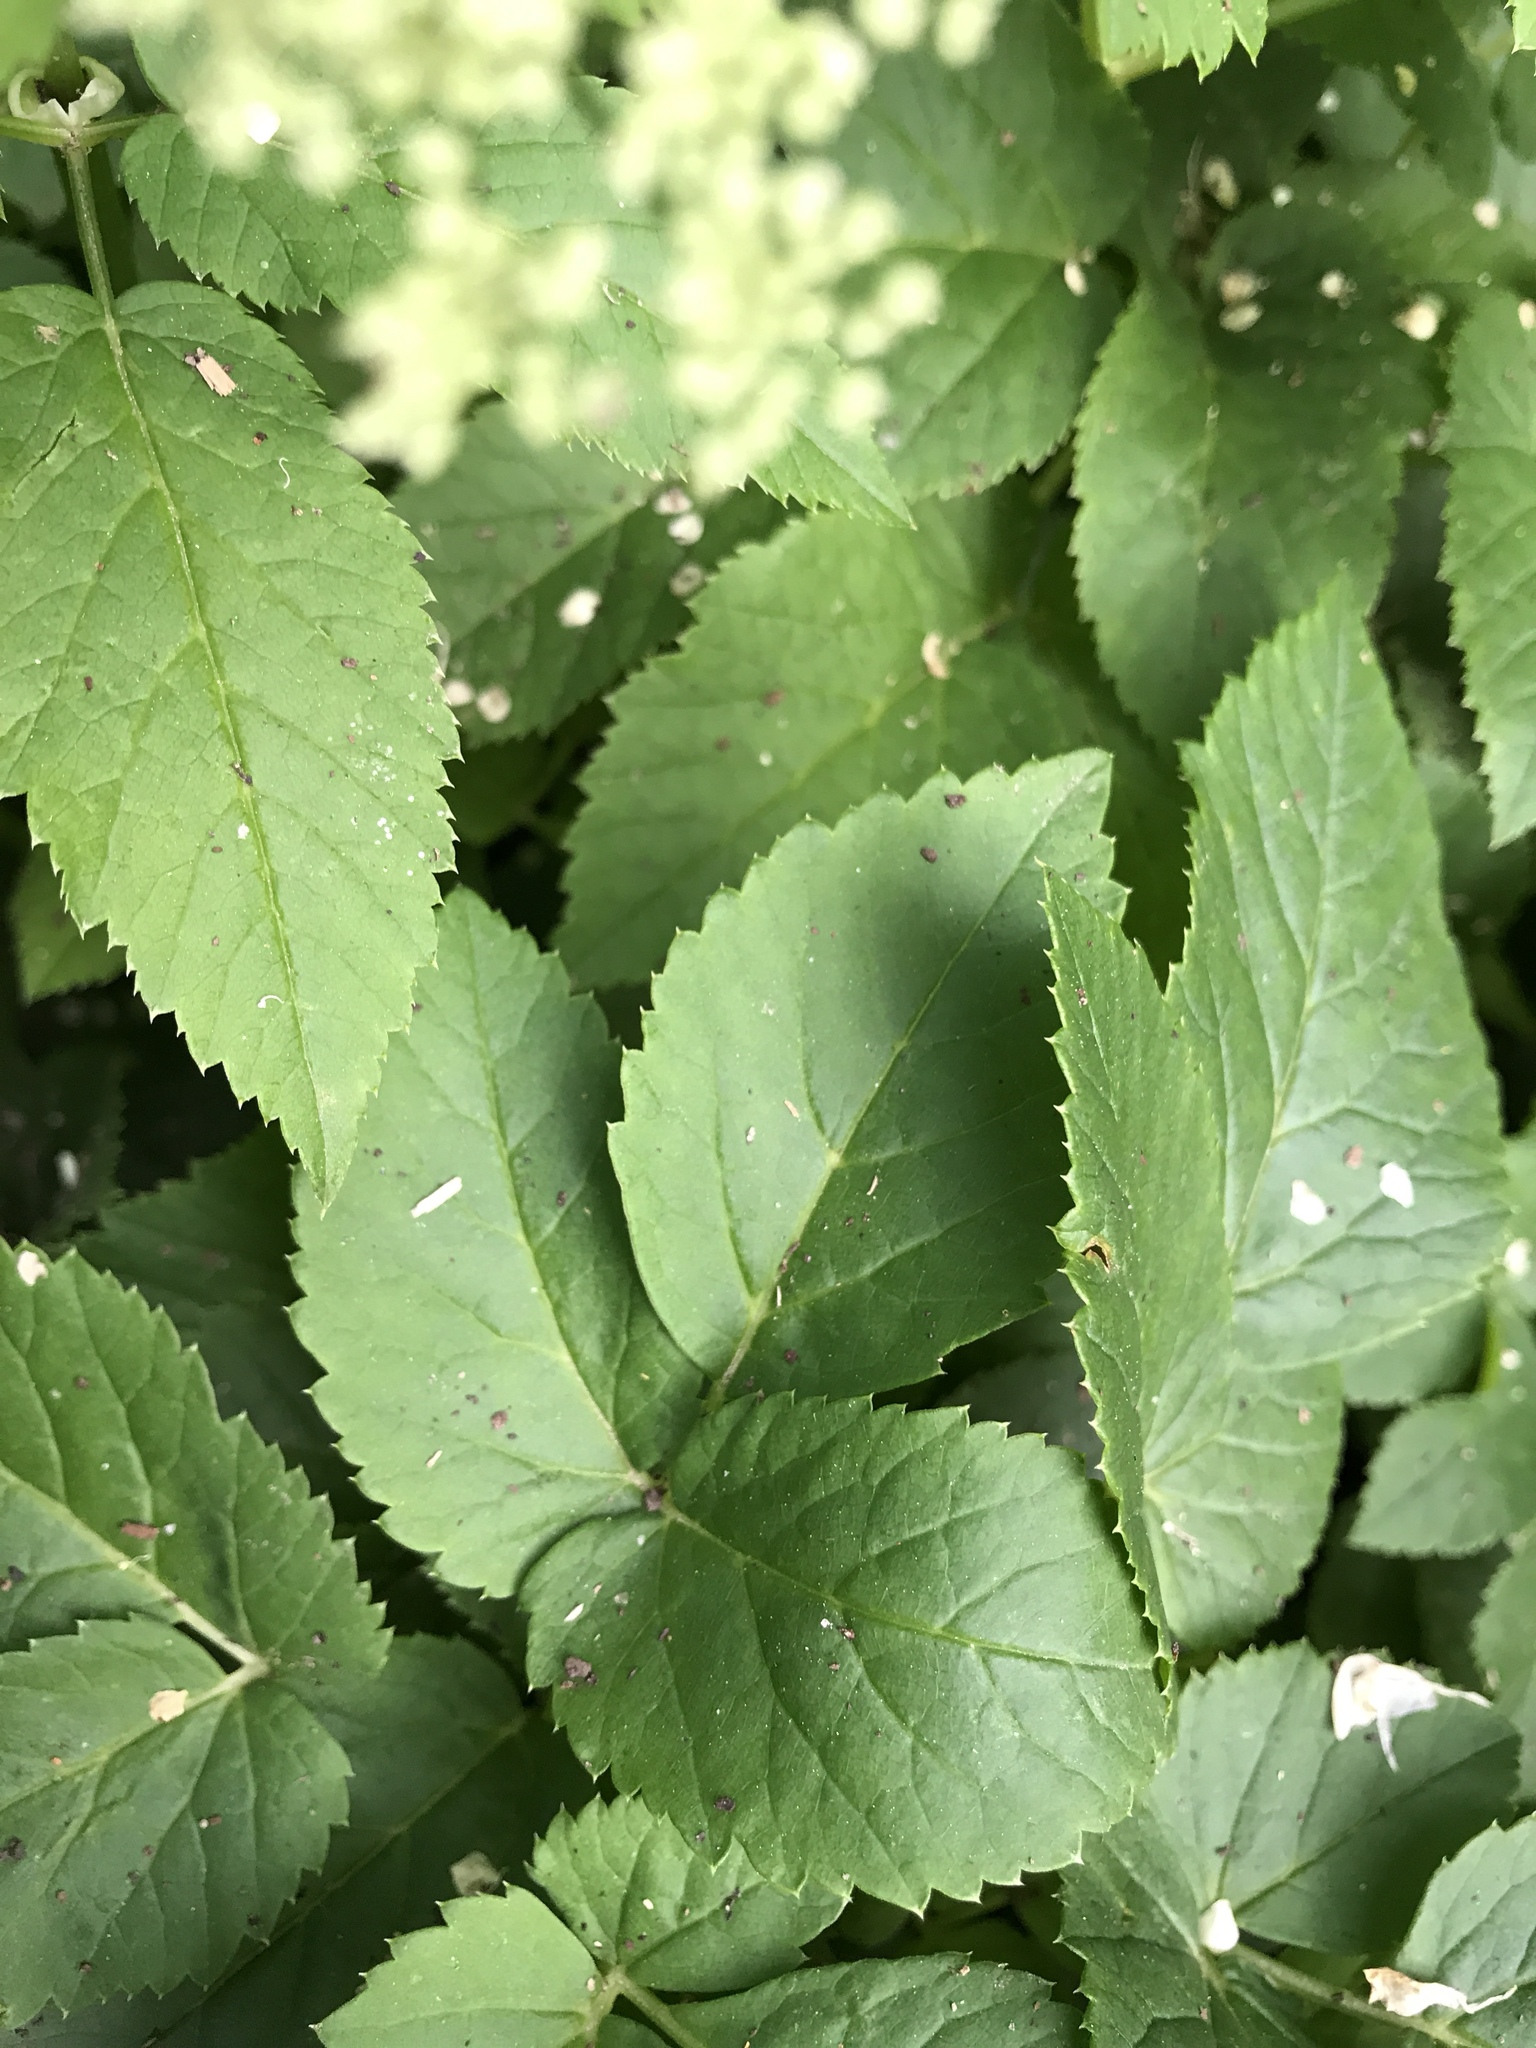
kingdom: Plantae
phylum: Tracheophyta
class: Magnoliopsida
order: Apiales
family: Apiaceae
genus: Aegopodium
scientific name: Aegopodium podagraria
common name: Ground-elder
